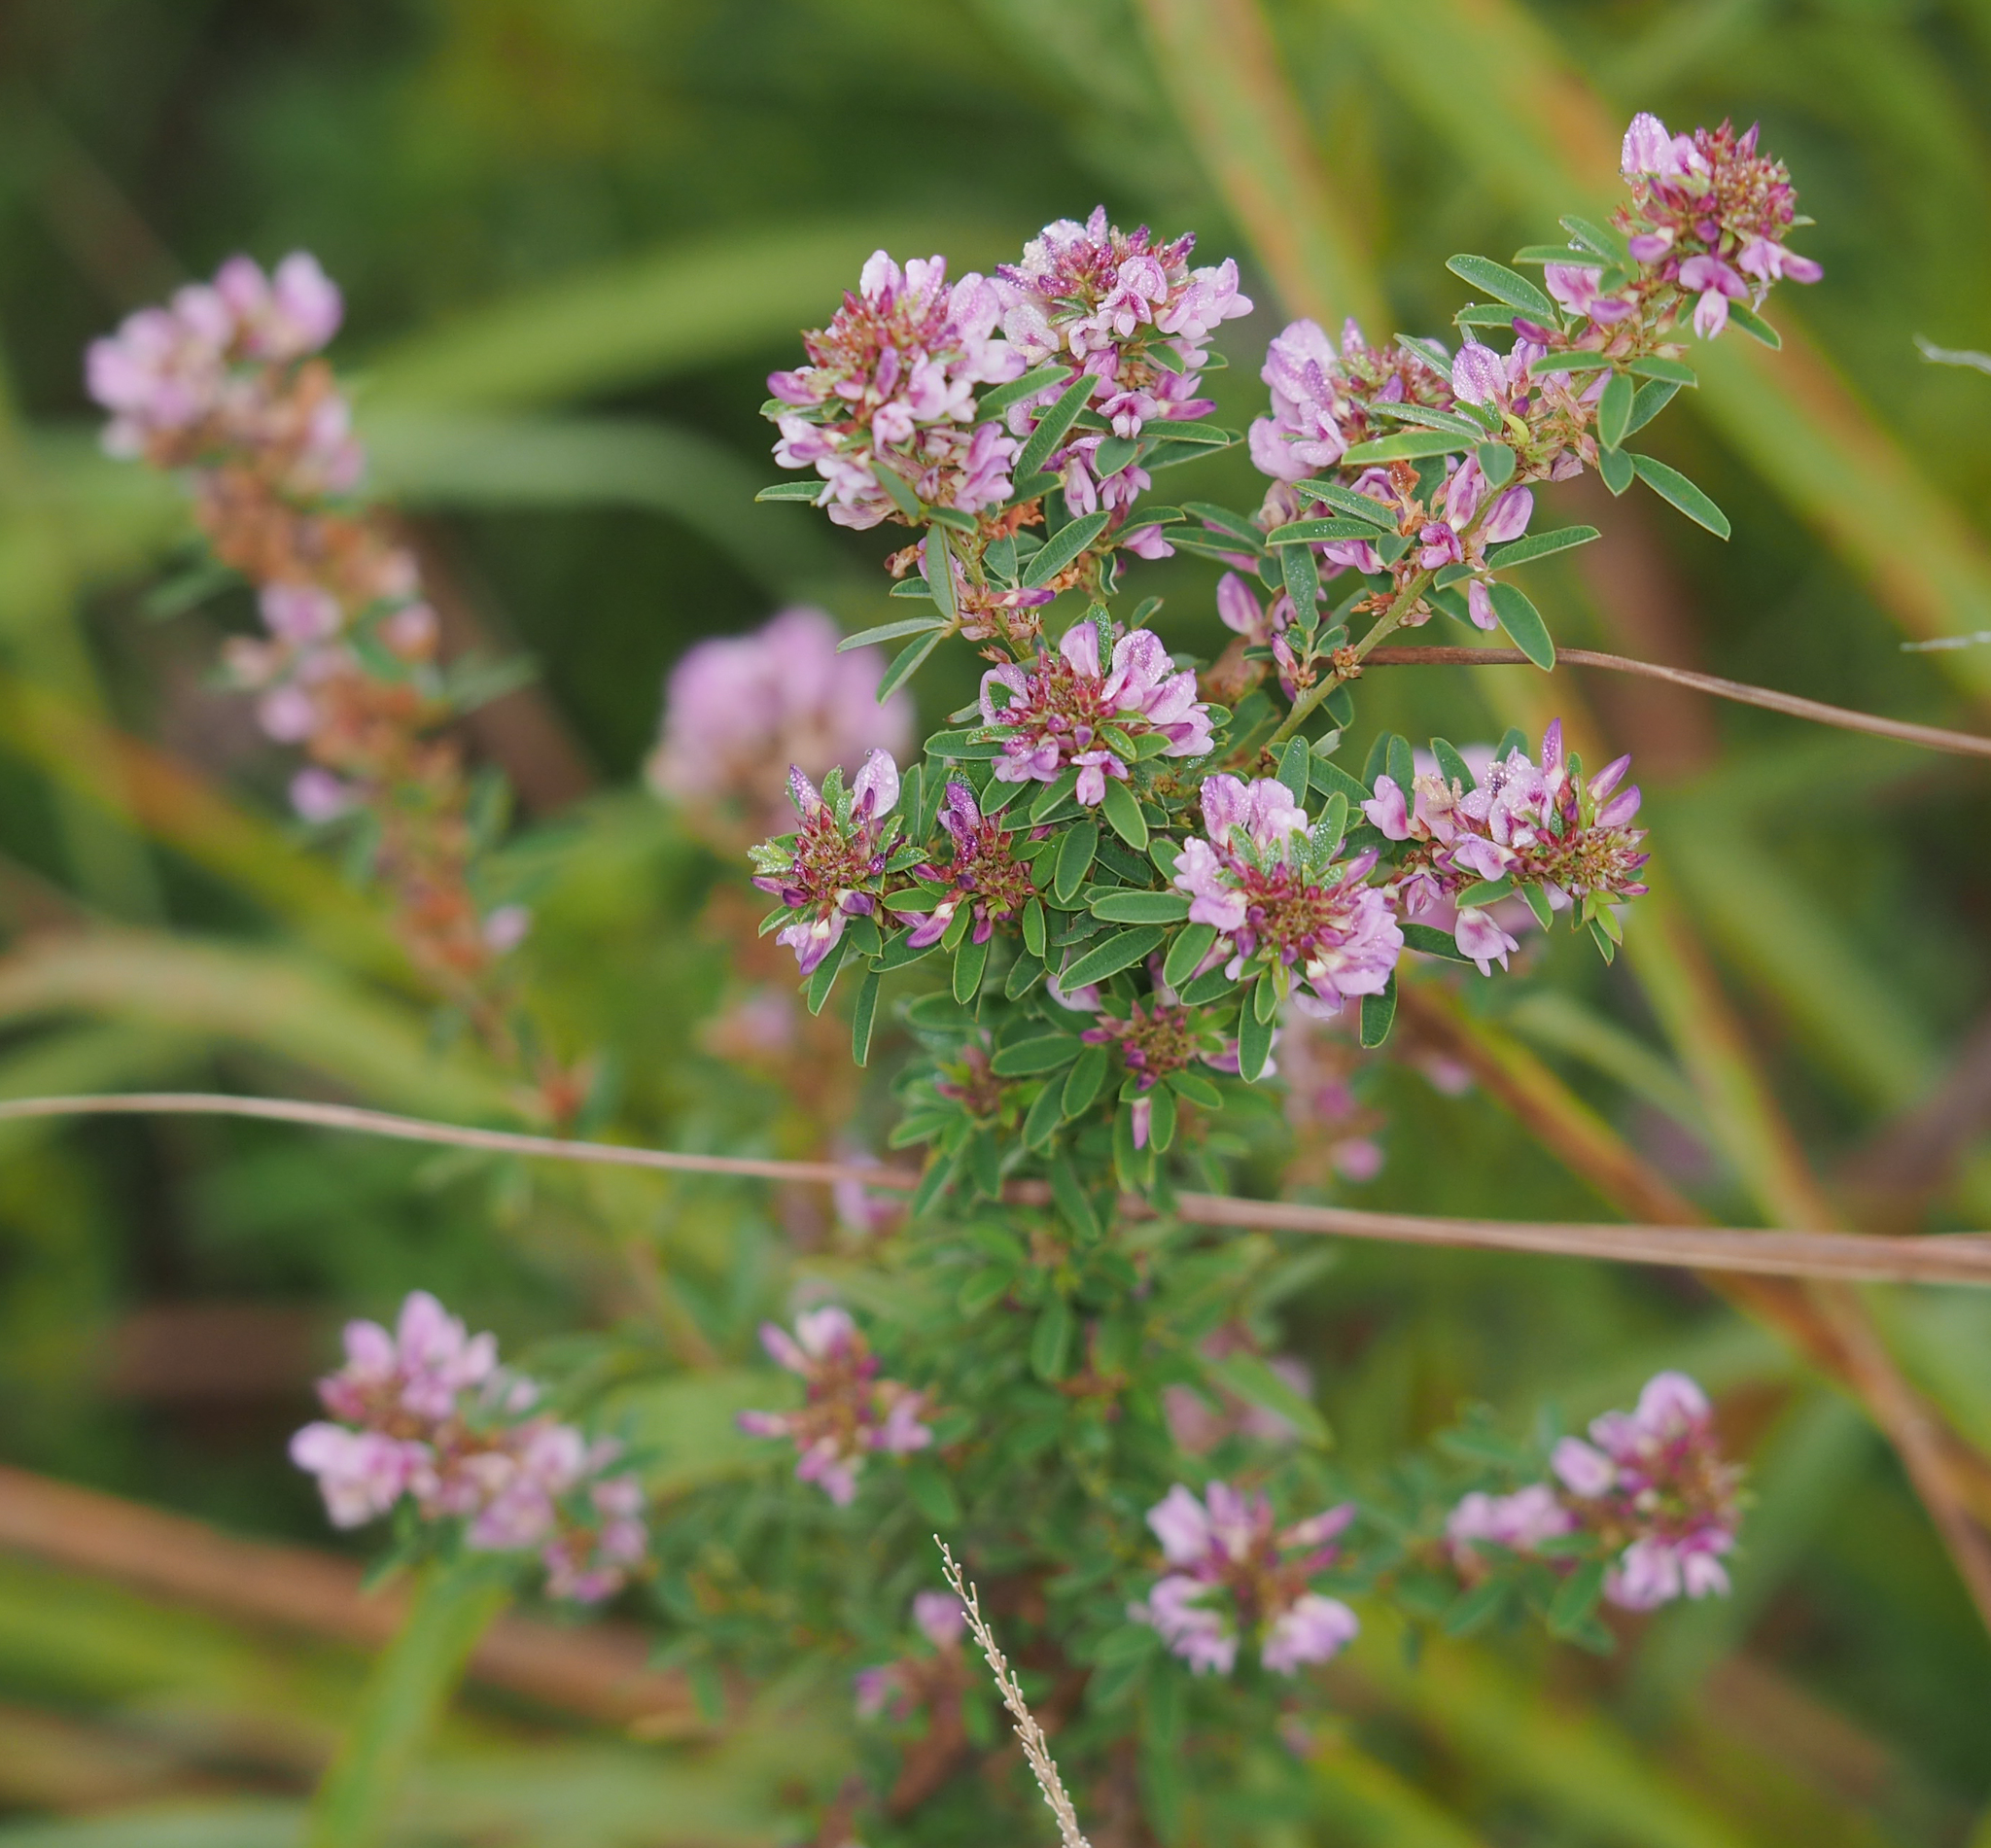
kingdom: Plantae
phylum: Tracheophyta
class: Magnoliopsida
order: Fabales
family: Fabaceae
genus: Lespedeza
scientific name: Lespedeza virginica
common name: Slender bush-clover
